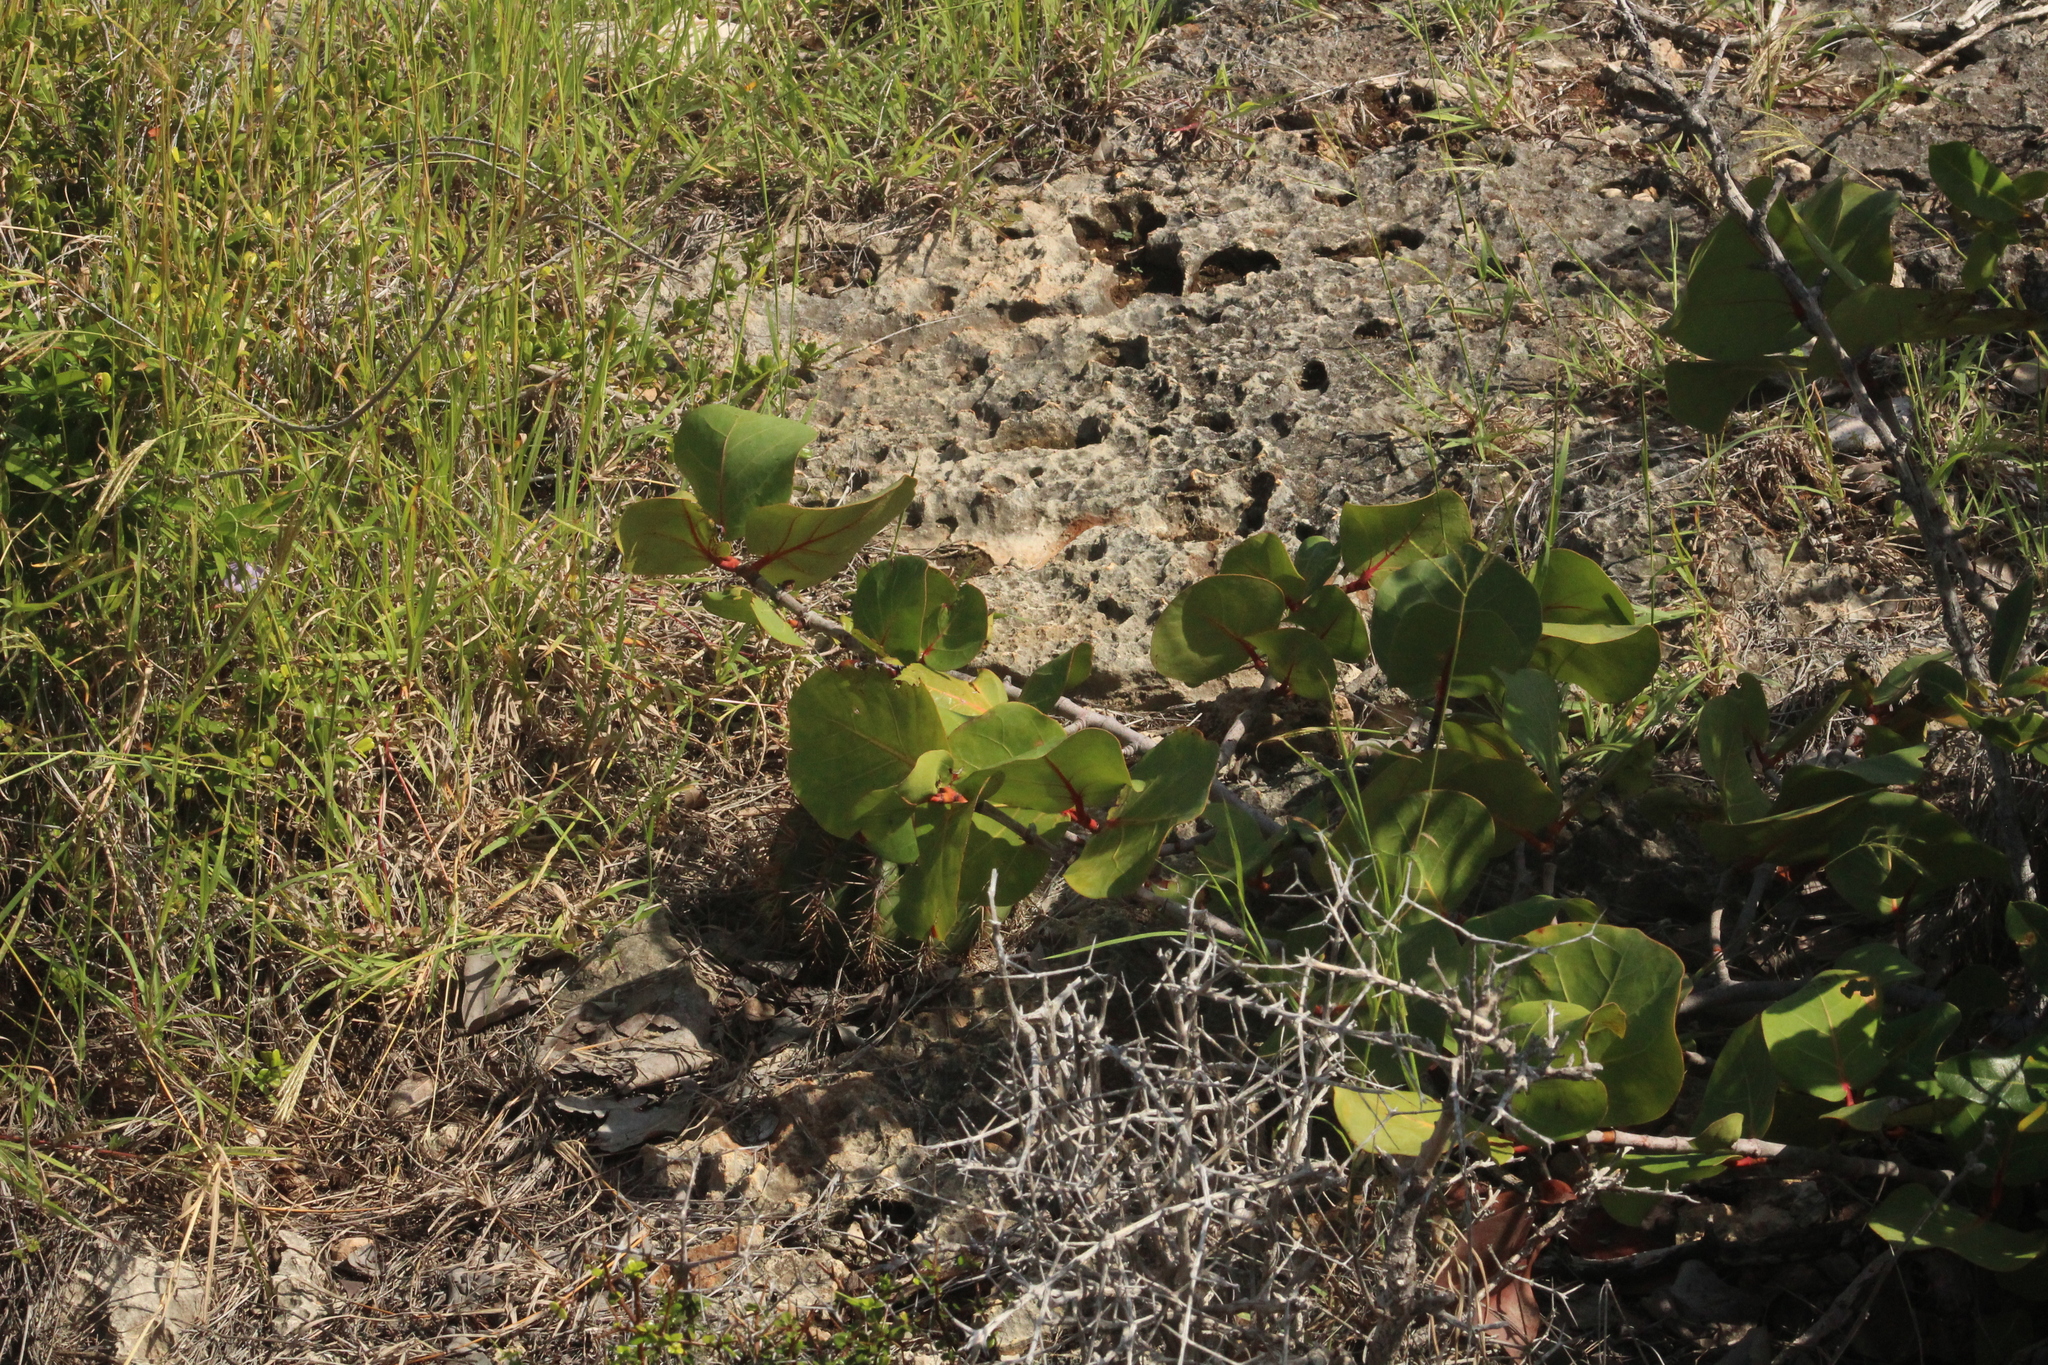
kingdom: Plantae
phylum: Tracheophyta
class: Magnoliopsida
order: Caryophyllales
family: Polygonaceae
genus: Coccoloba
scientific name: Coccoloba uvifera
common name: Seagrape
